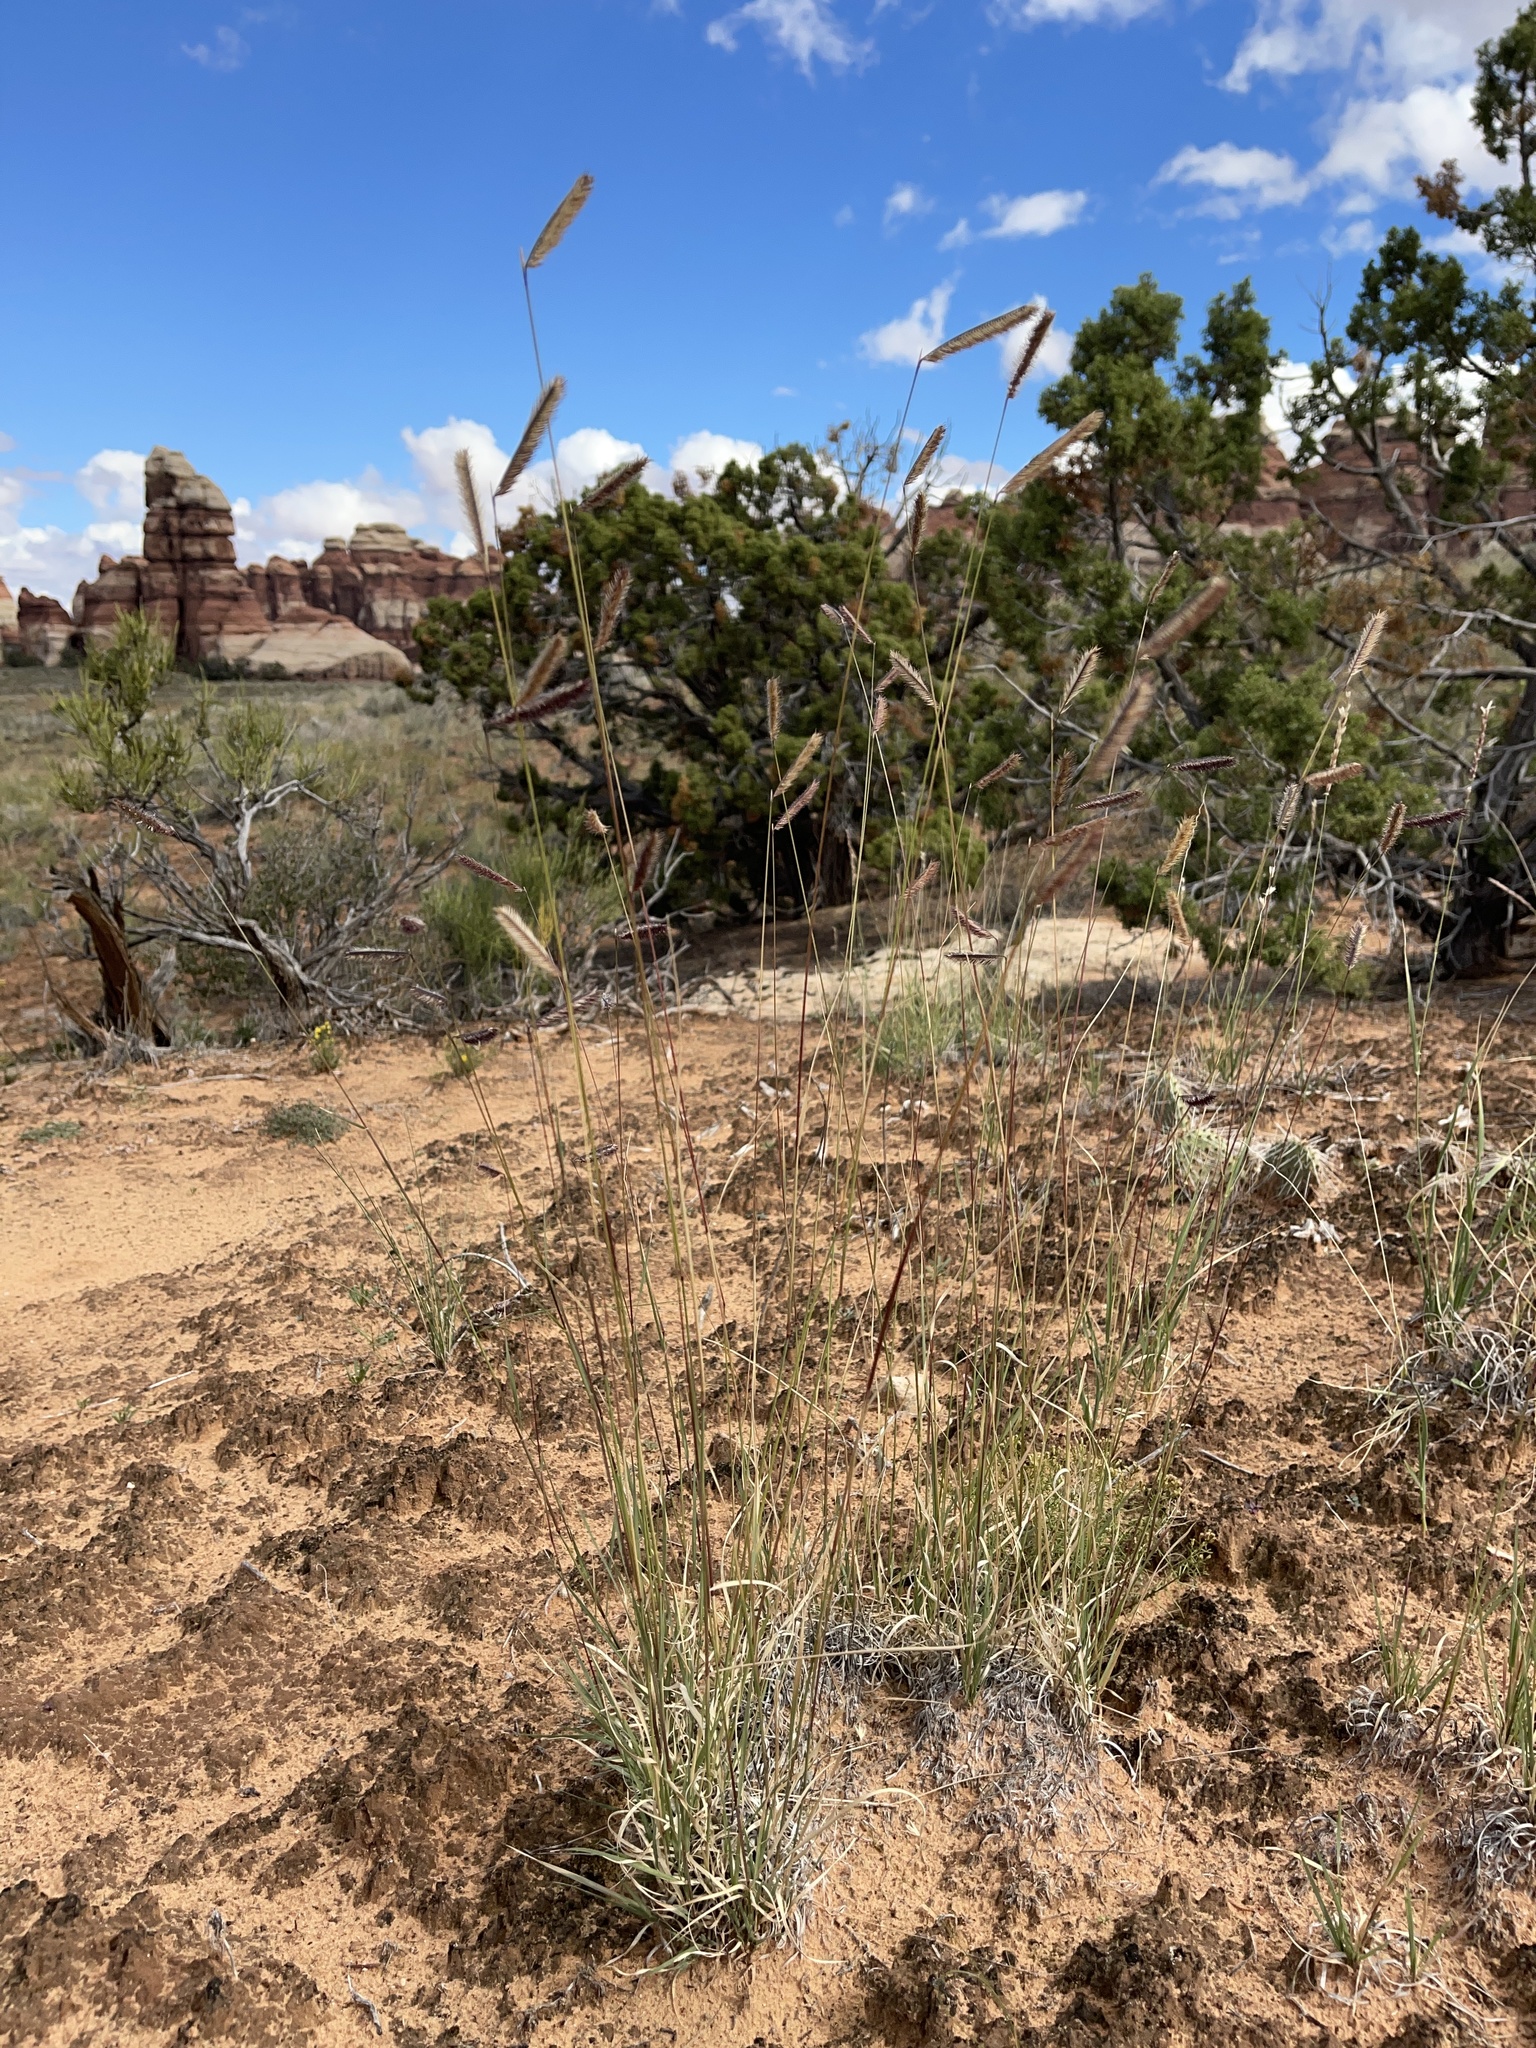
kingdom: Plantae
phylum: Tracheophyta
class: Liliopsida
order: Poales
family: Poaceae
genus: Bouteloua
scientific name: Bouteloua gracilis
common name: Blue grama
